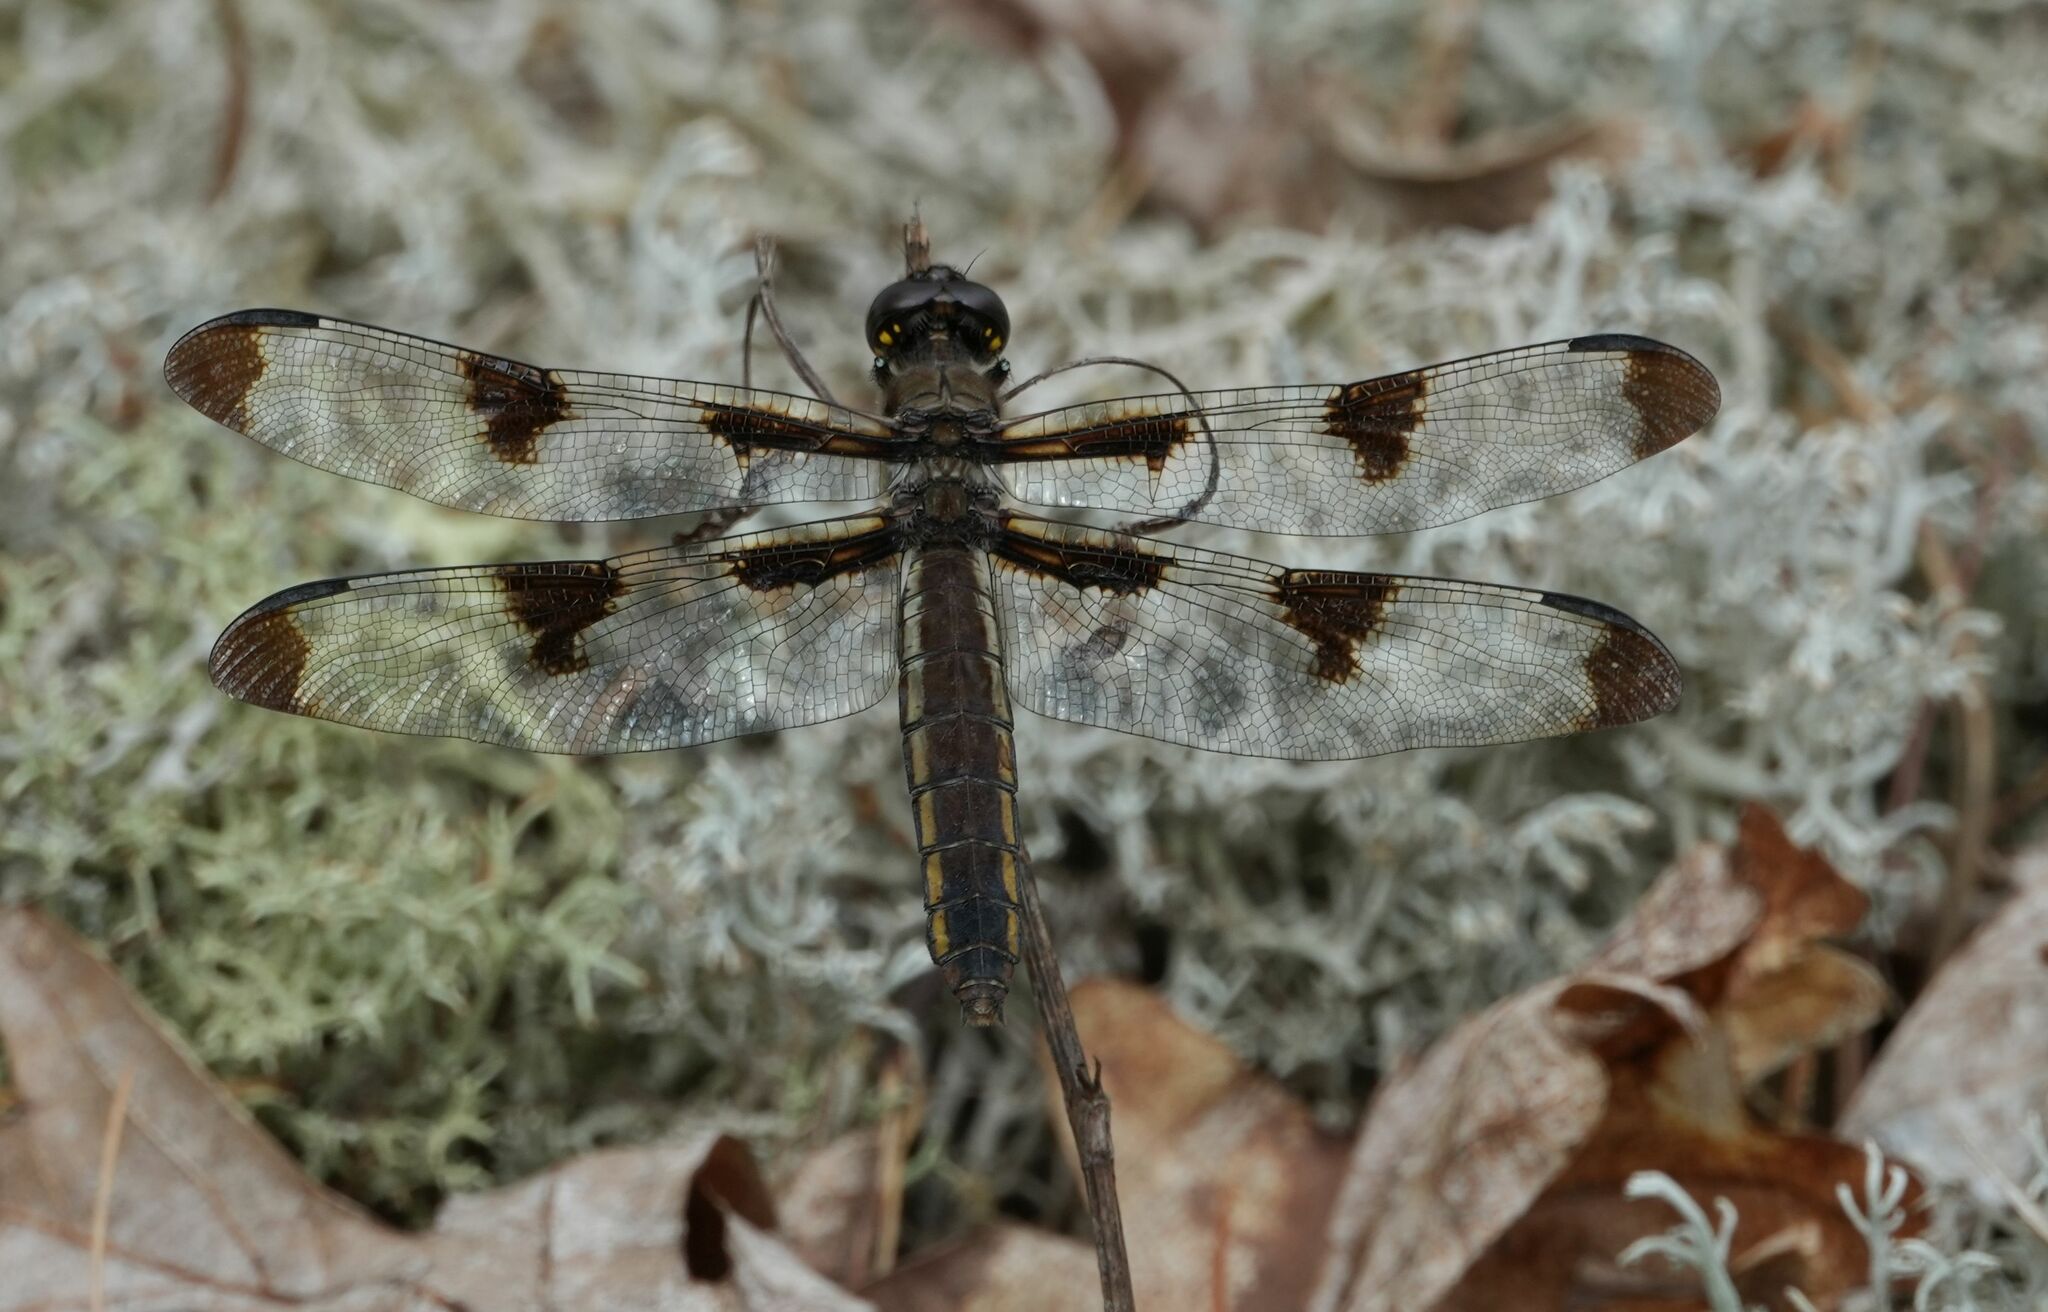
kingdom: Animalia
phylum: Arthropoda
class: Insecta
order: Odonata
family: Libellulidae
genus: Libellula
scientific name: Libellula pulchella
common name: Twelve-spotted skimmer
